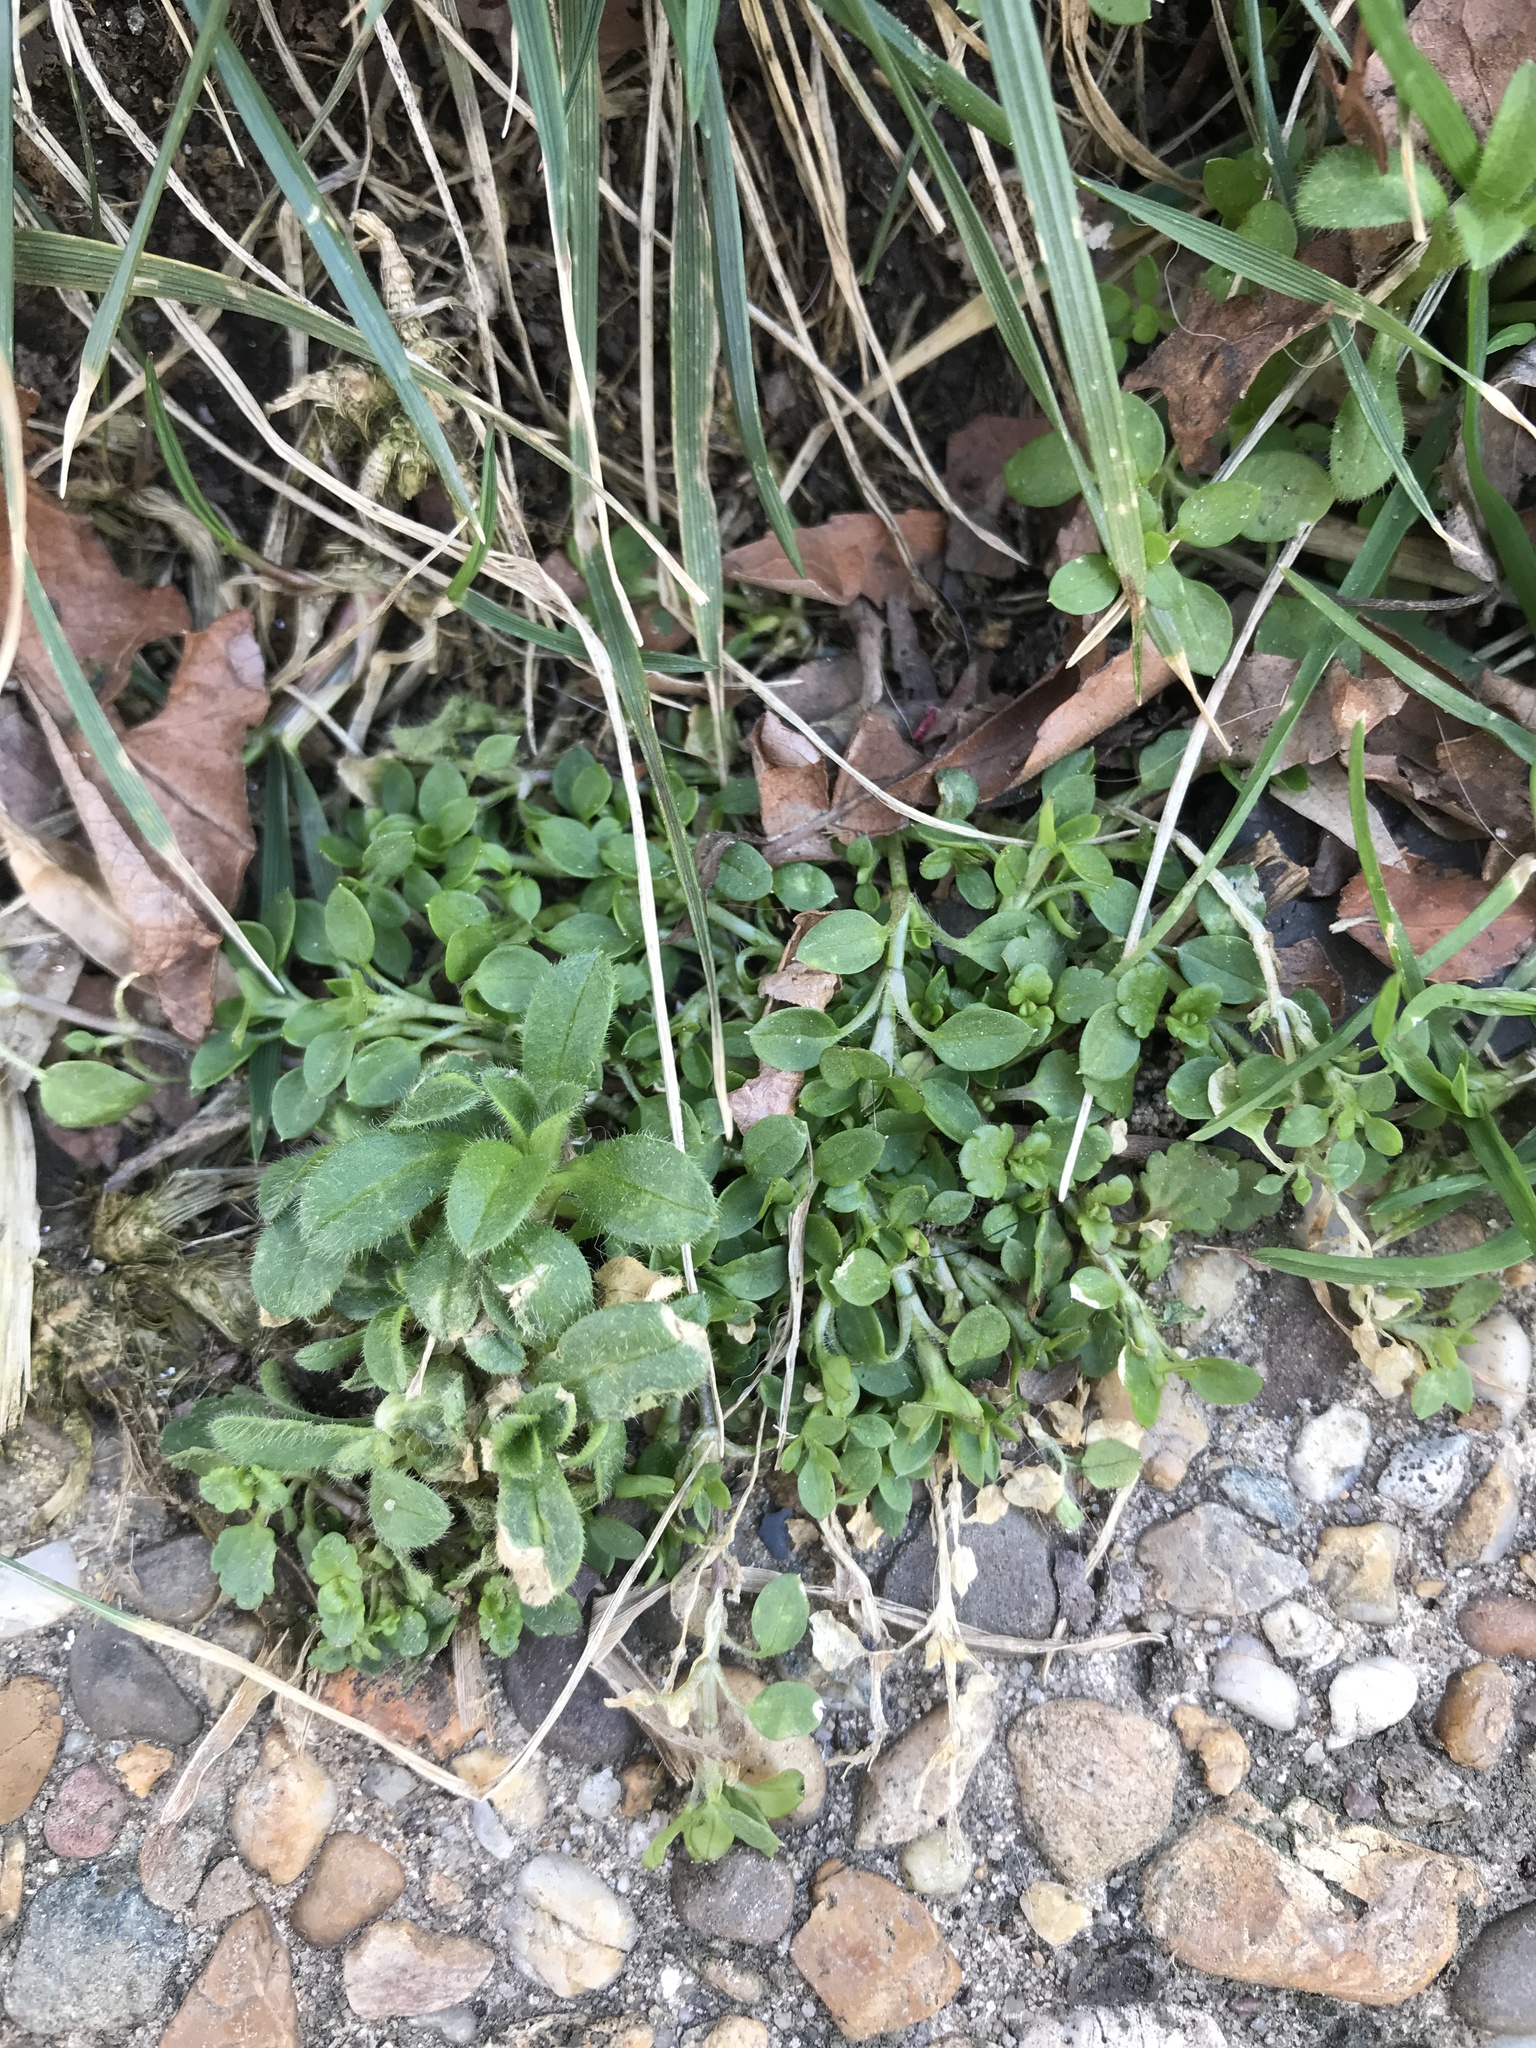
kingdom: Plantae
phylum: Tracheophyta
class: Magnoliopsida
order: Caryophyllales
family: Caryophyllaceae
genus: Cerastium
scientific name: Cerastium fontanum
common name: Common mouse-ear
